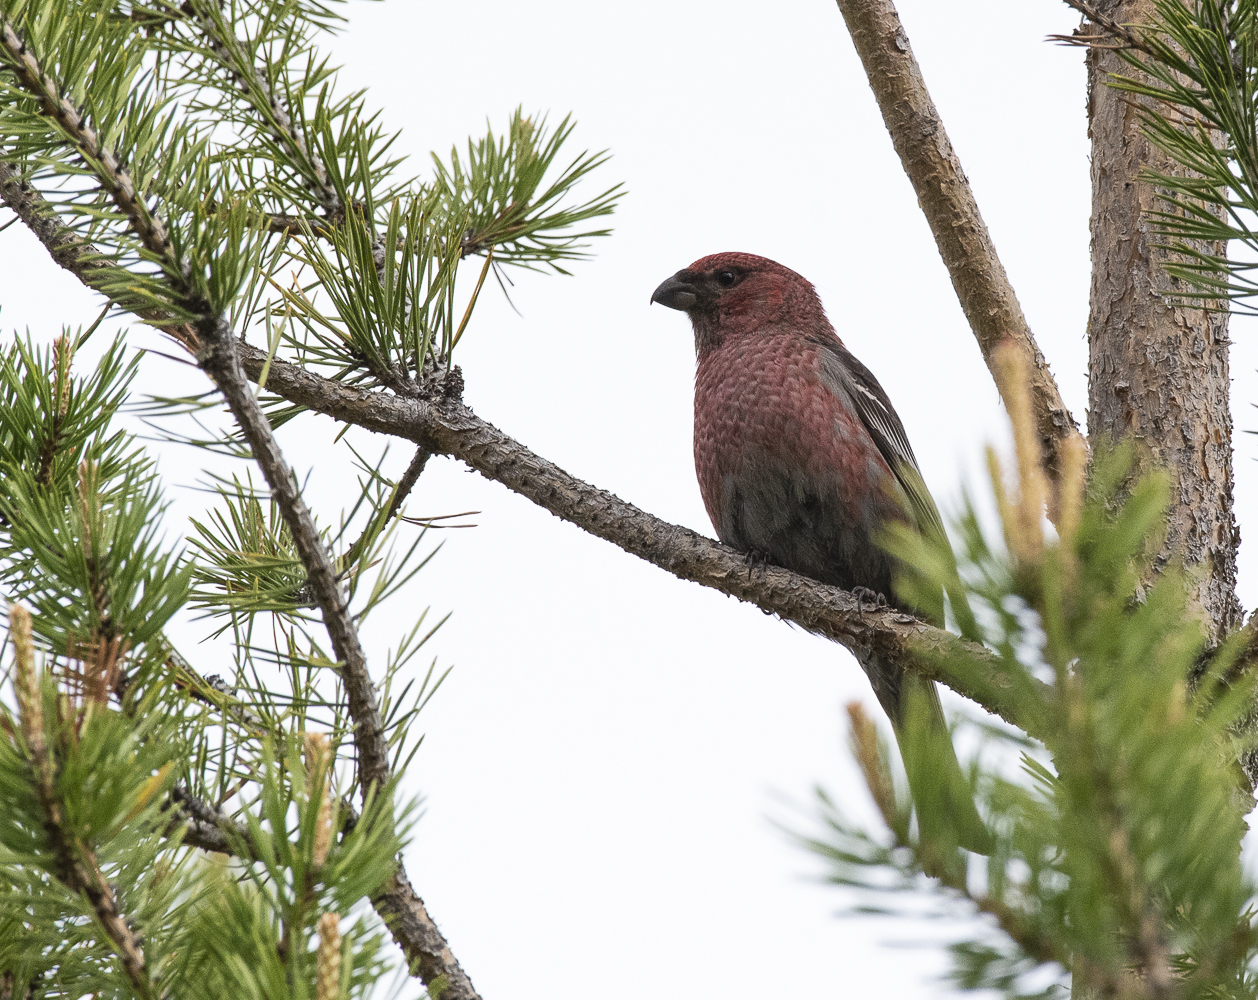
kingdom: Animalia
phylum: Chordata
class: Aves
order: Passeriformes
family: Fringillidae
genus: Pinicola
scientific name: Pinicola enucleator
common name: Pine grosbeak
